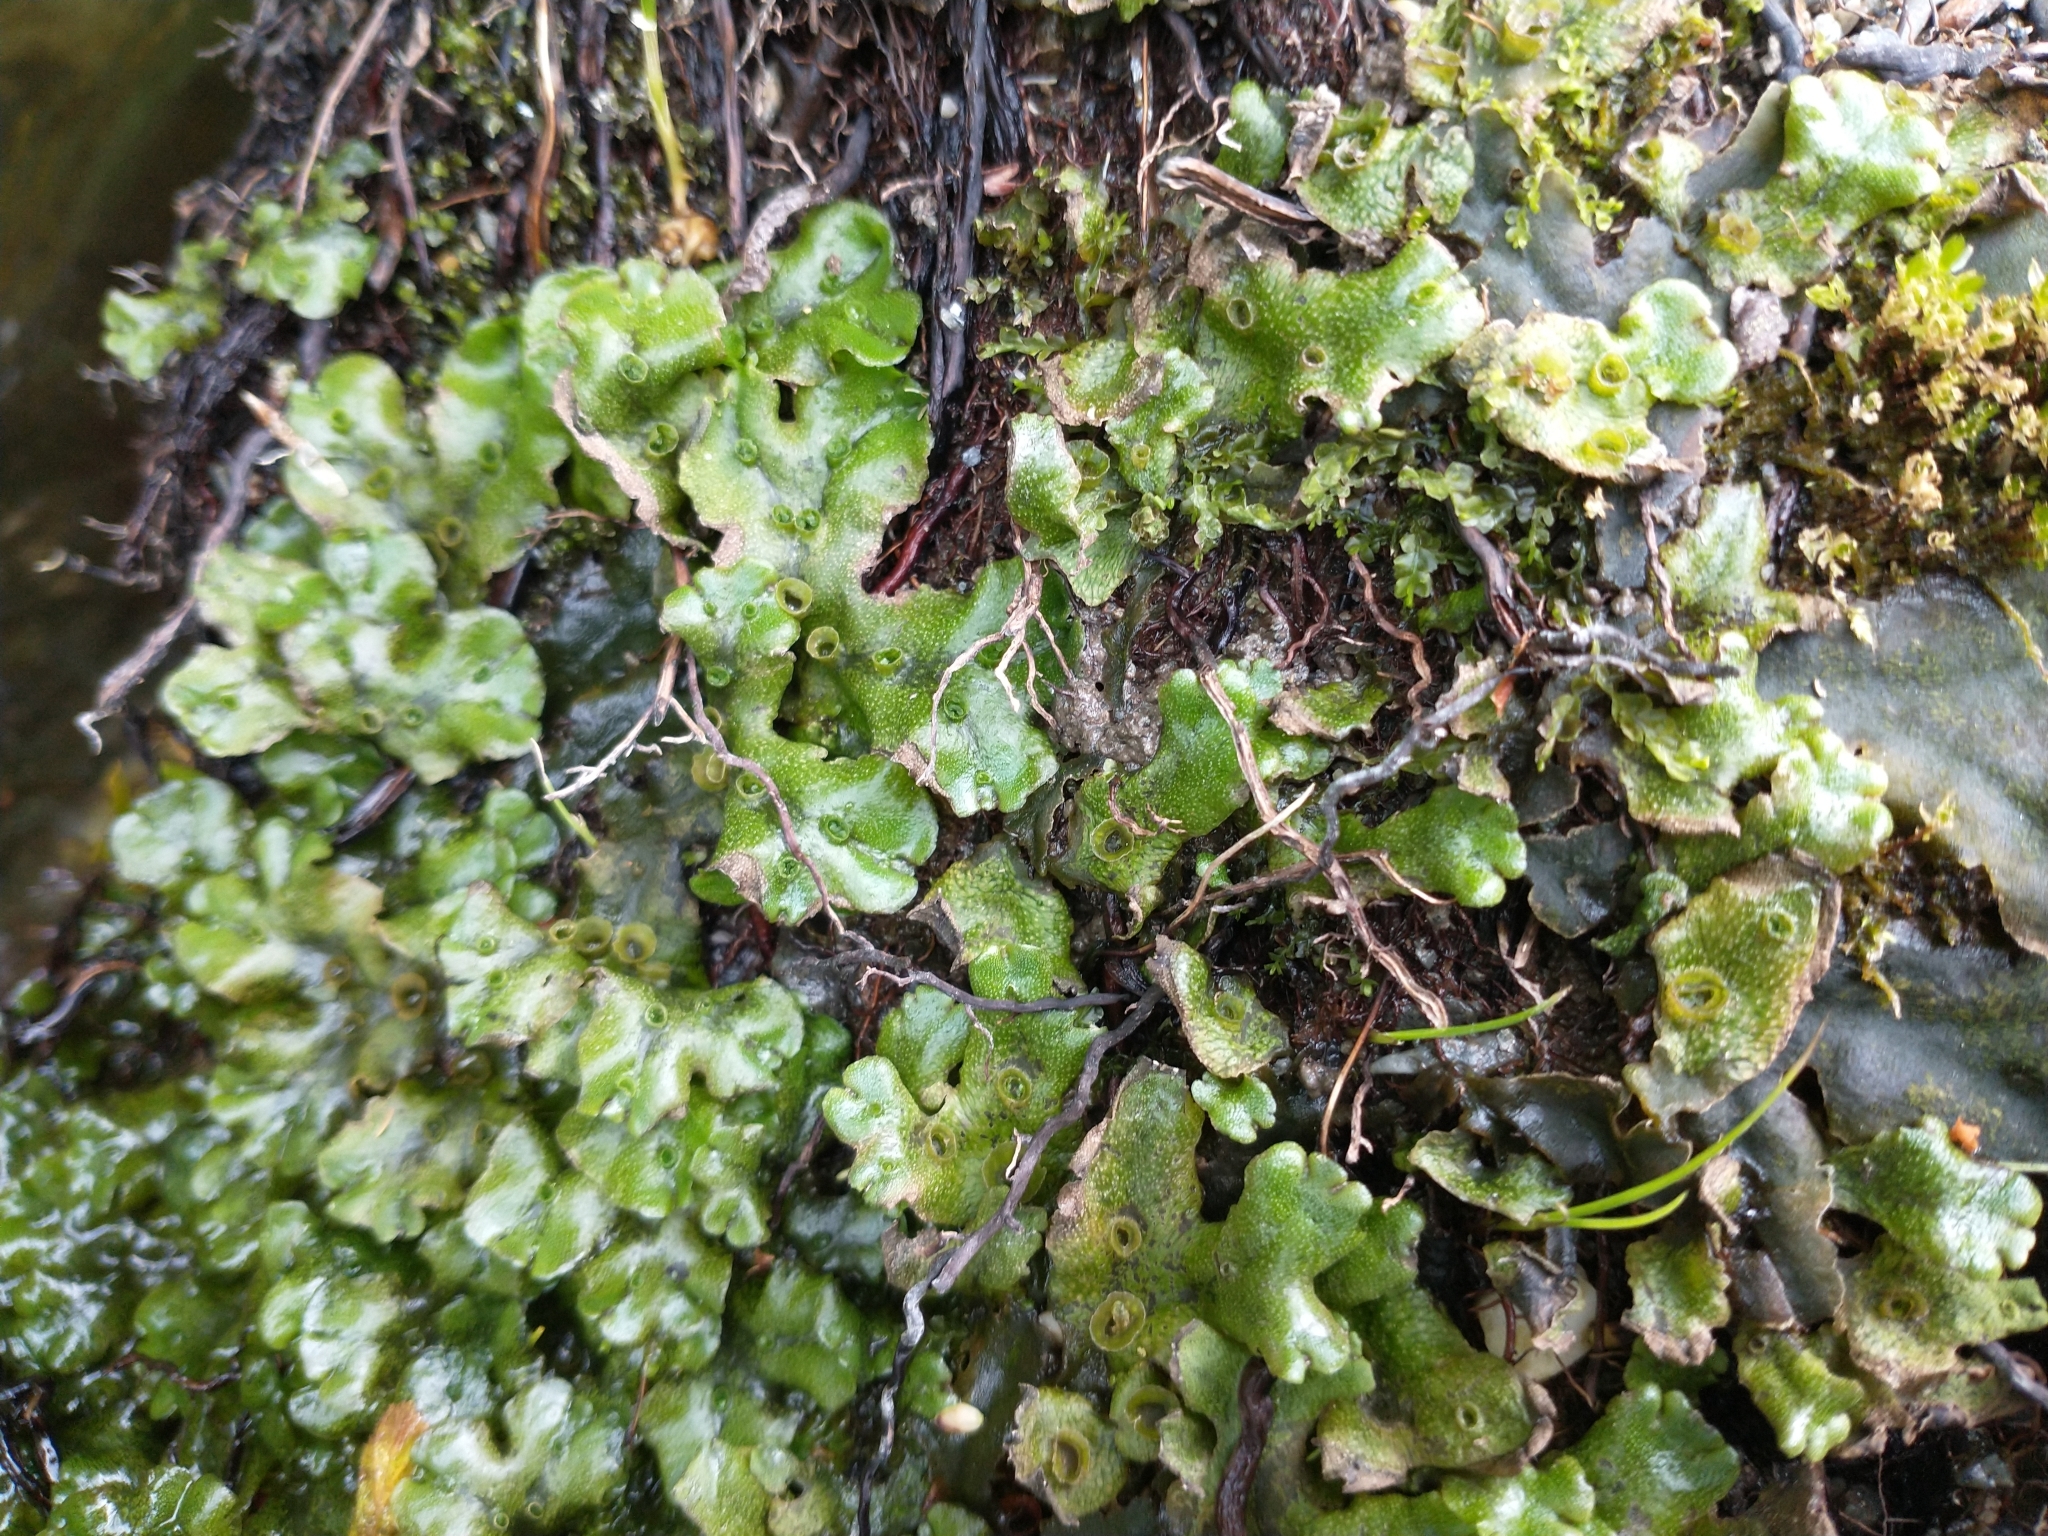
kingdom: Plantae
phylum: Marchantiophyta
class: Marchantiopsida
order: Marchantiales
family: Marchantiaceae
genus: Marchantia
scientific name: Marchantia polymorpha
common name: Common liverwort
